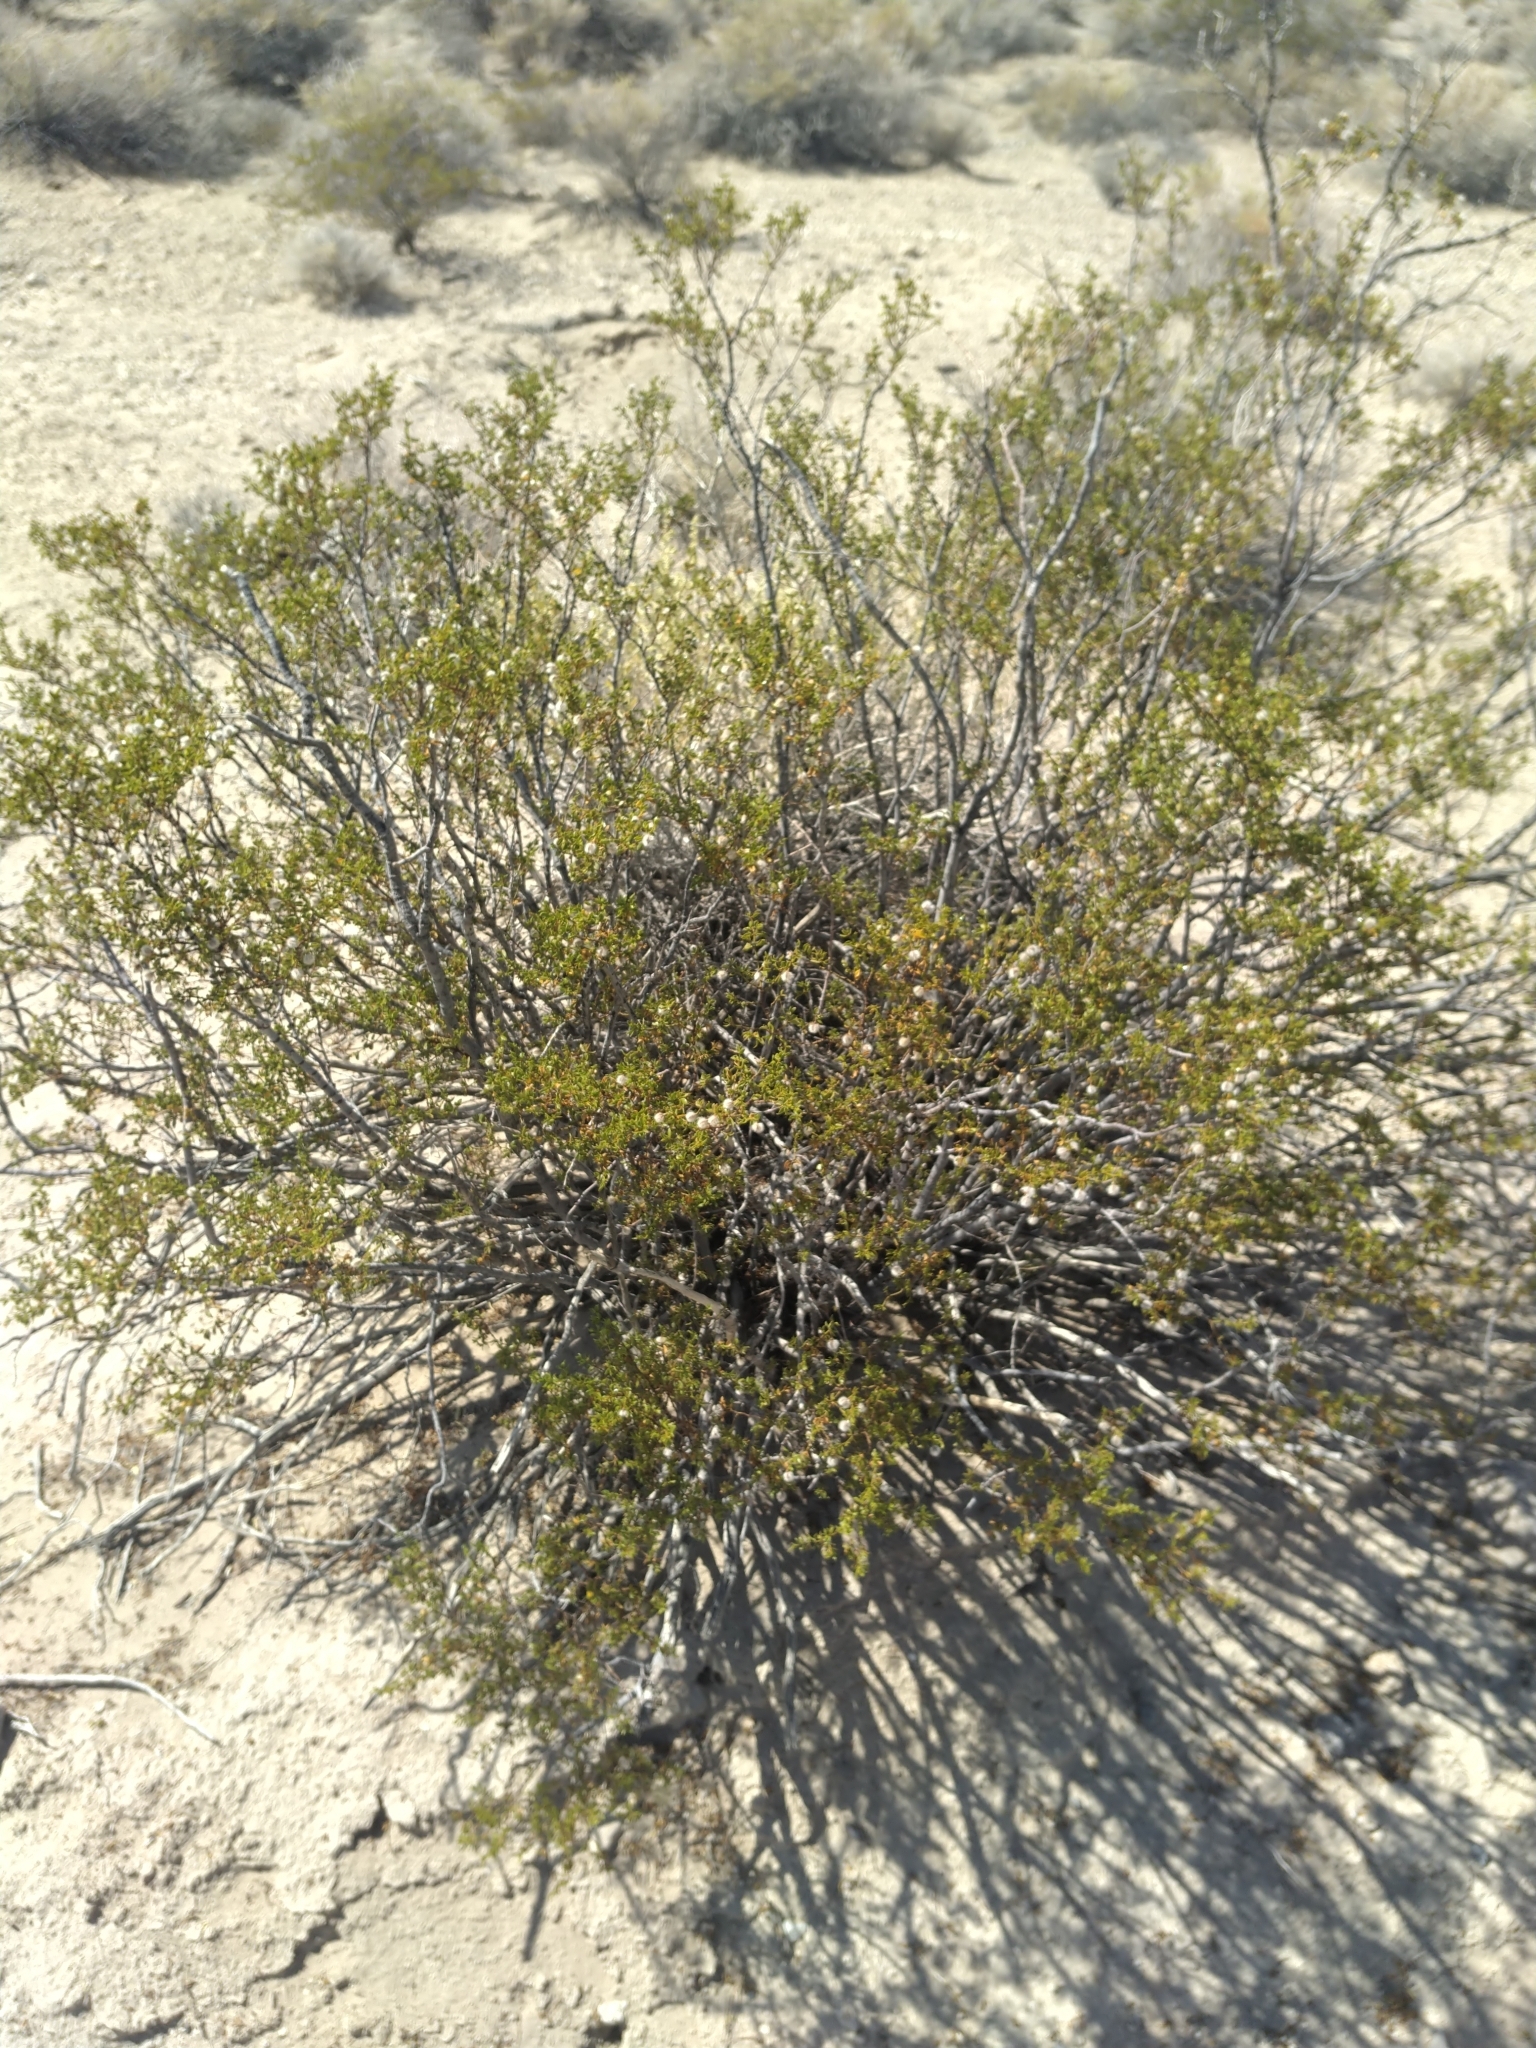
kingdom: Plantae
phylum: Tracheophyta
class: Magnoliopsida
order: Zygophyllales
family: Zygophyllaceae
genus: Larrea
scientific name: Larrea tridentata
